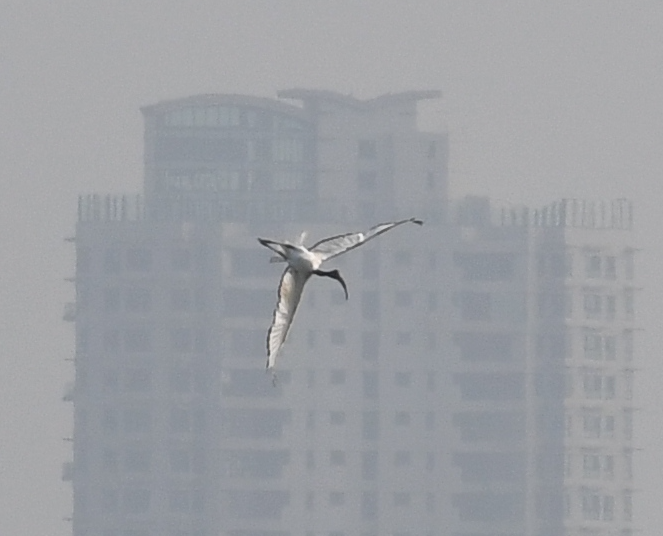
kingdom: Animalia
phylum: Chordata
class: Aves
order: Pelecaniformes
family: Threskiornithidae
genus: Threskiornis
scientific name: Threskiornis aethiopicus
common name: Sacred ibis
